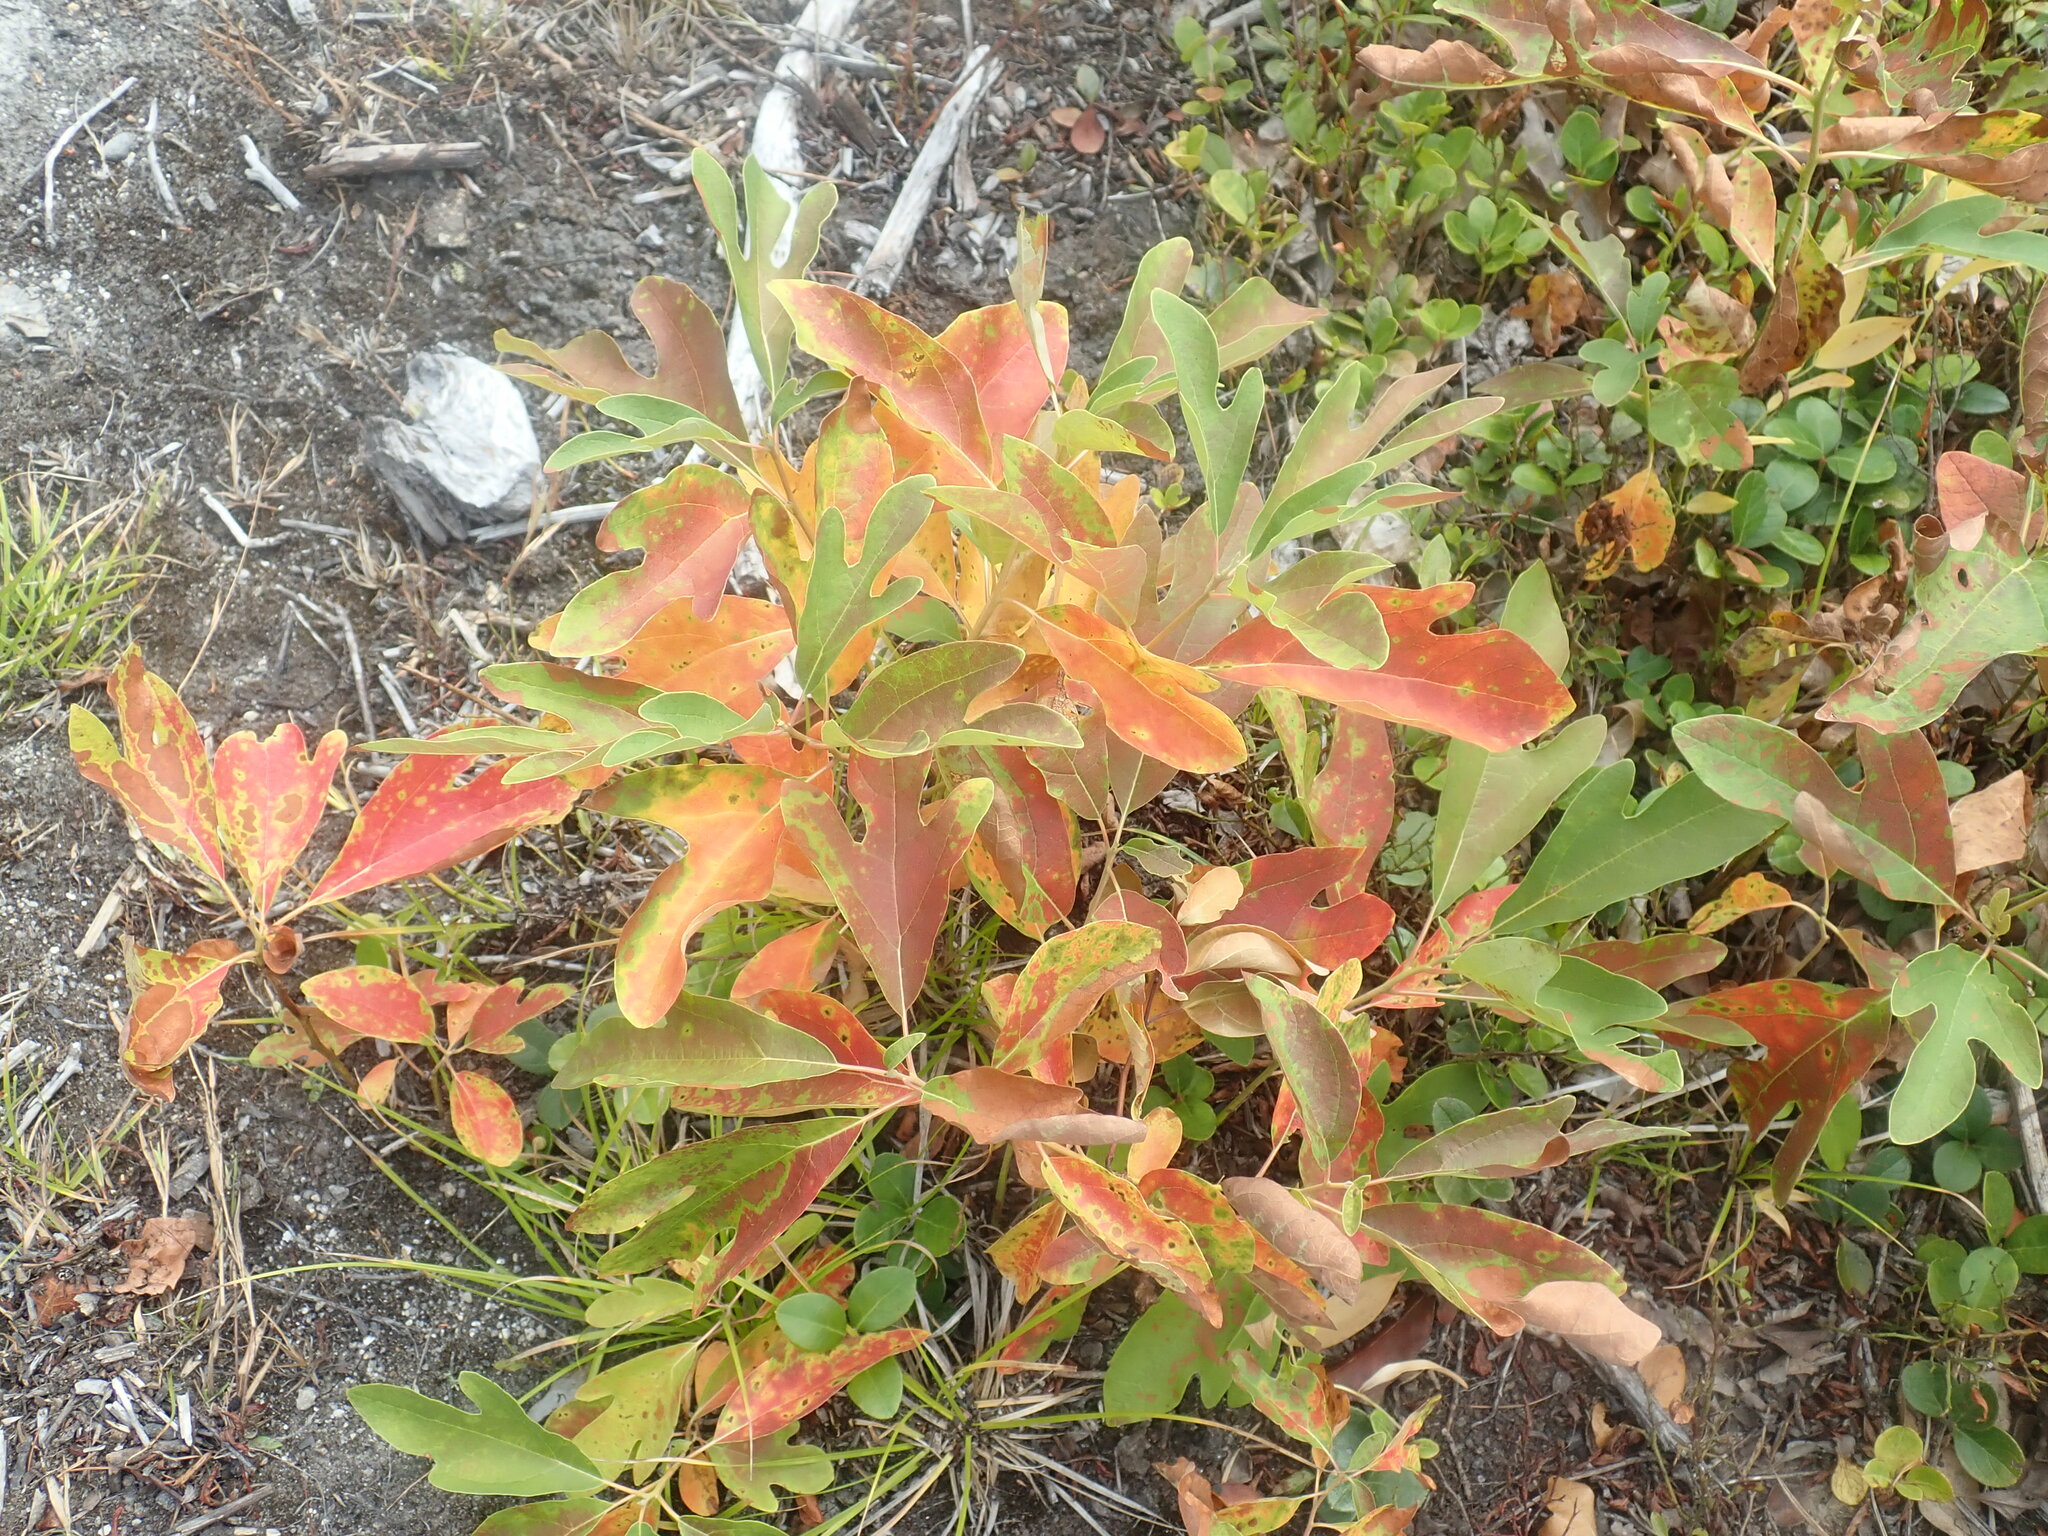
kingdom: Plantae
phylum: Tracheophyta
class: Magnoliopsida
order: Laurales
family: Lauraceae
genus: Sassafras
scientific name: Sassafras albidum
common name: Sassafras
